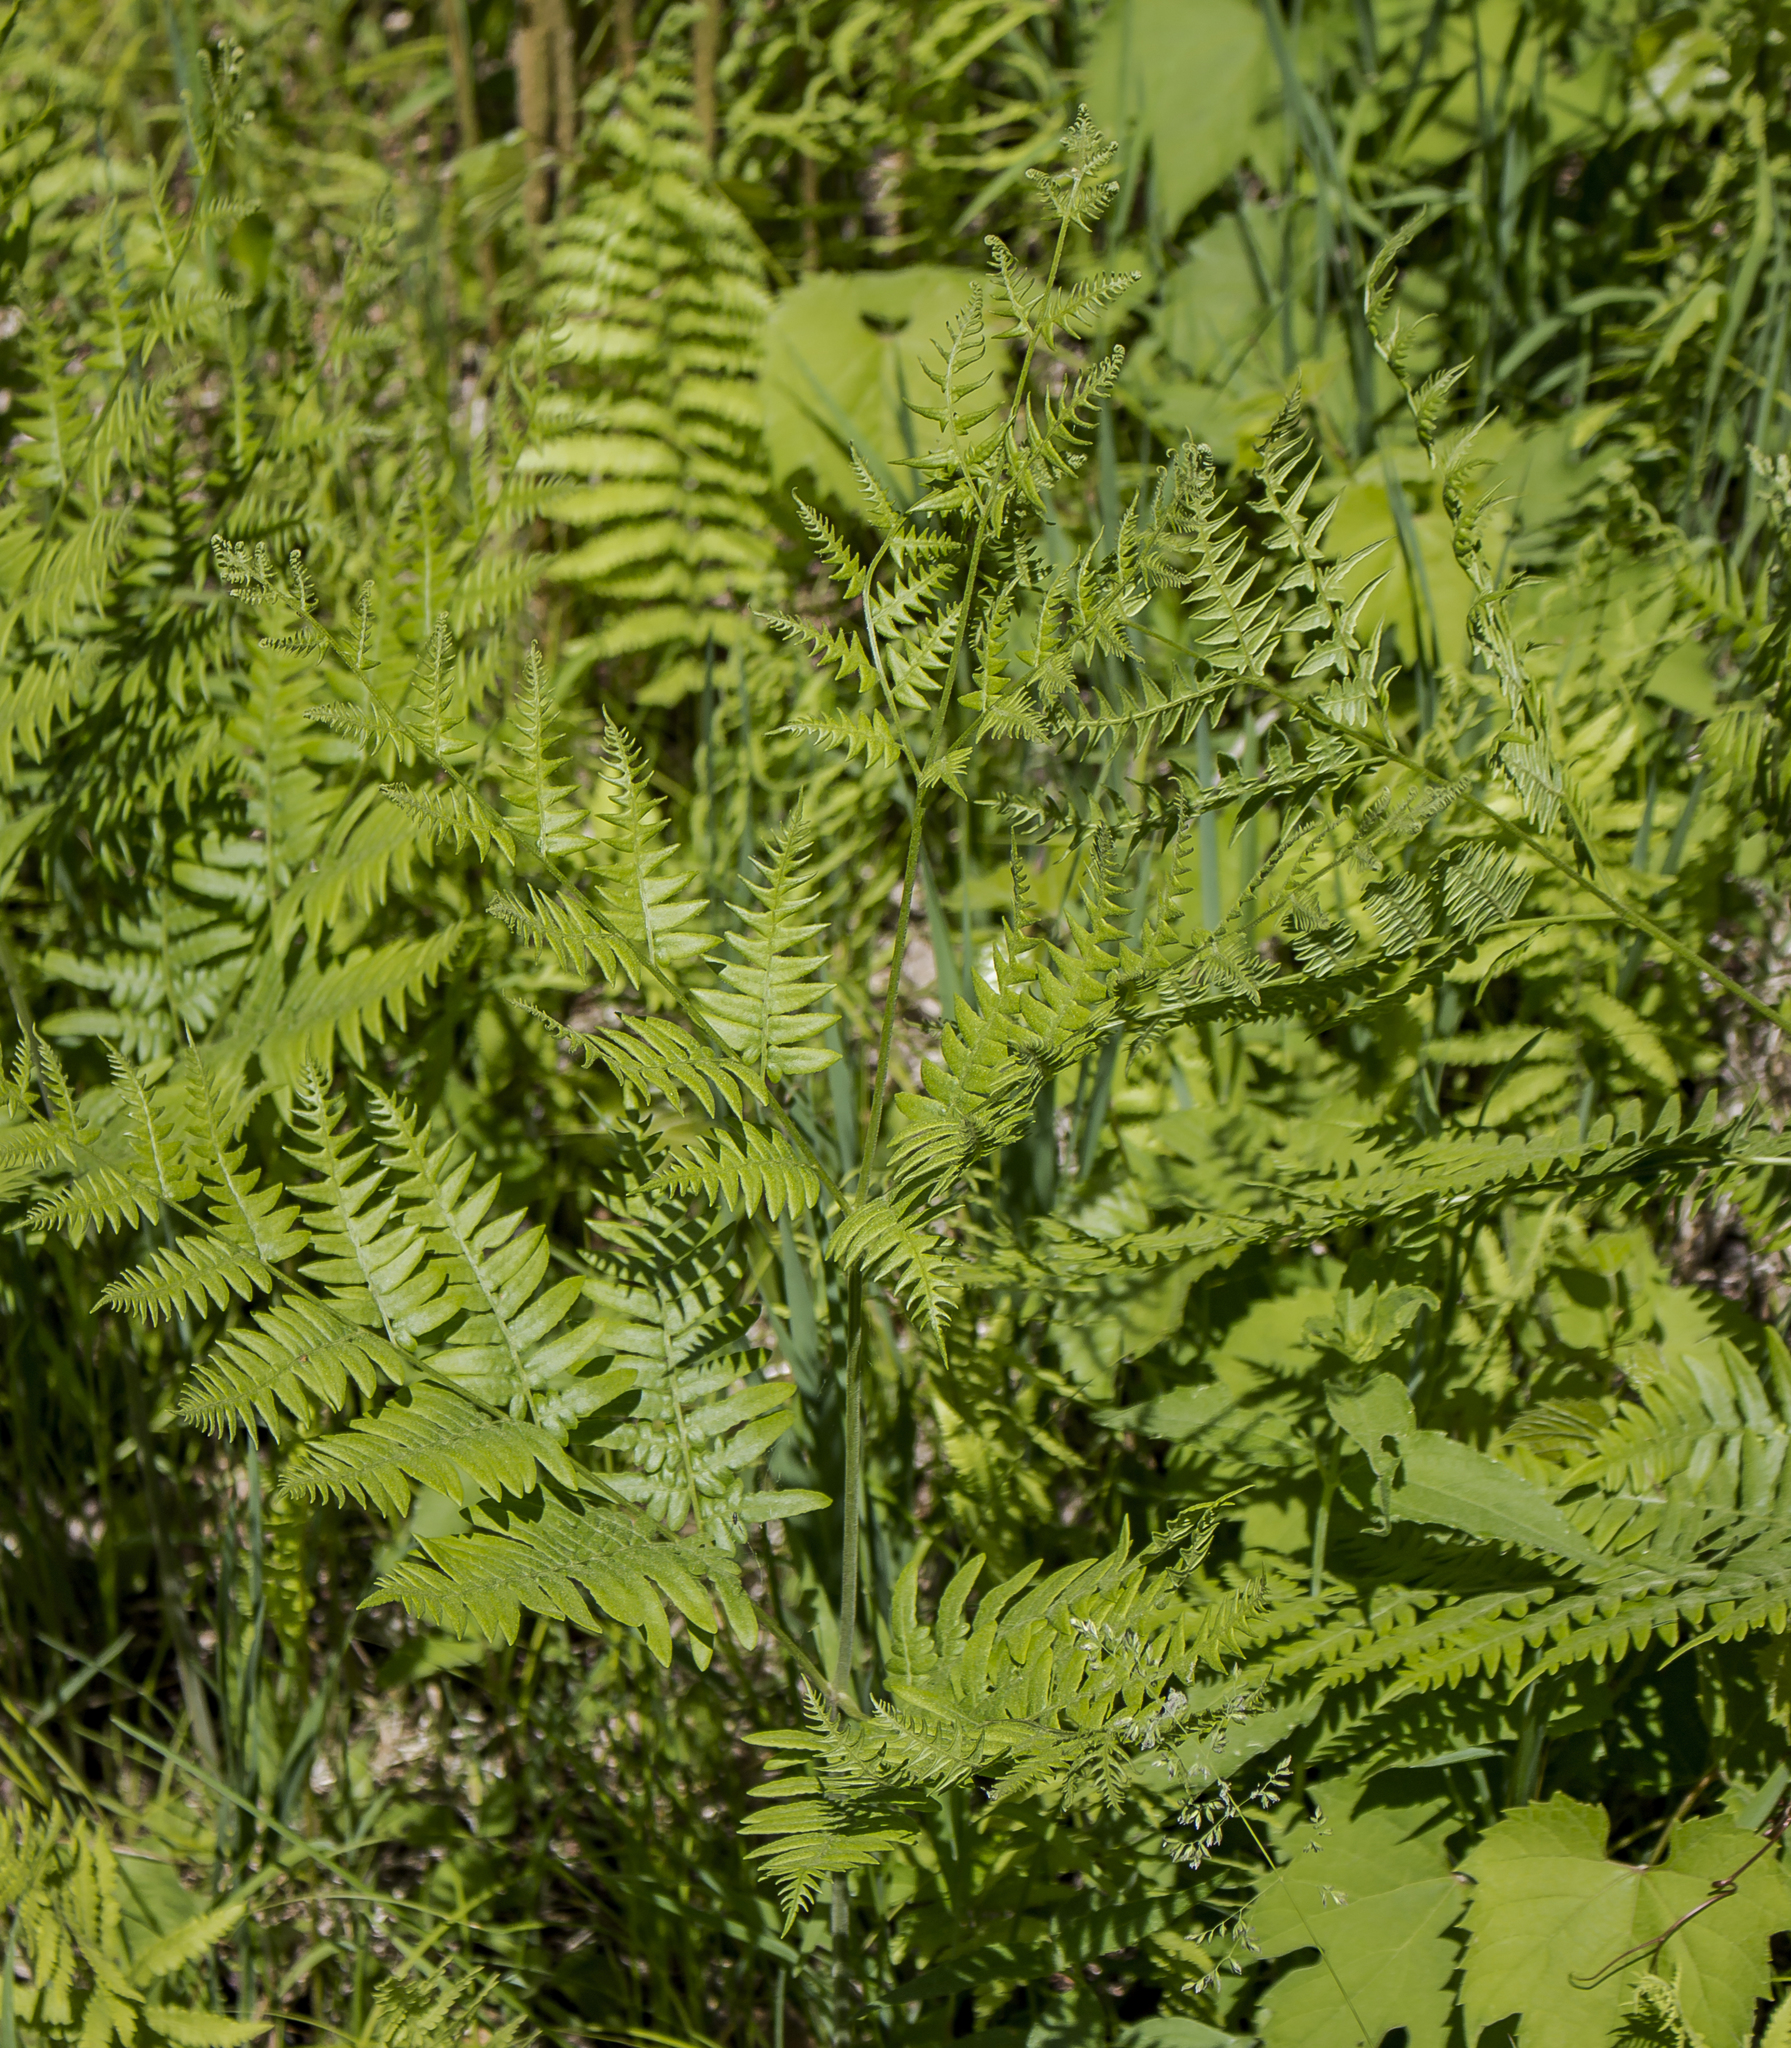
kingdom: Plantae
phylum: Tracheophyta
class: Polypodiopsida
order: Polypodiales
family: Dennstaedtiaceae
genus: Pteridium
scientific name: Pteridium aquilinum
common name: Bracken
